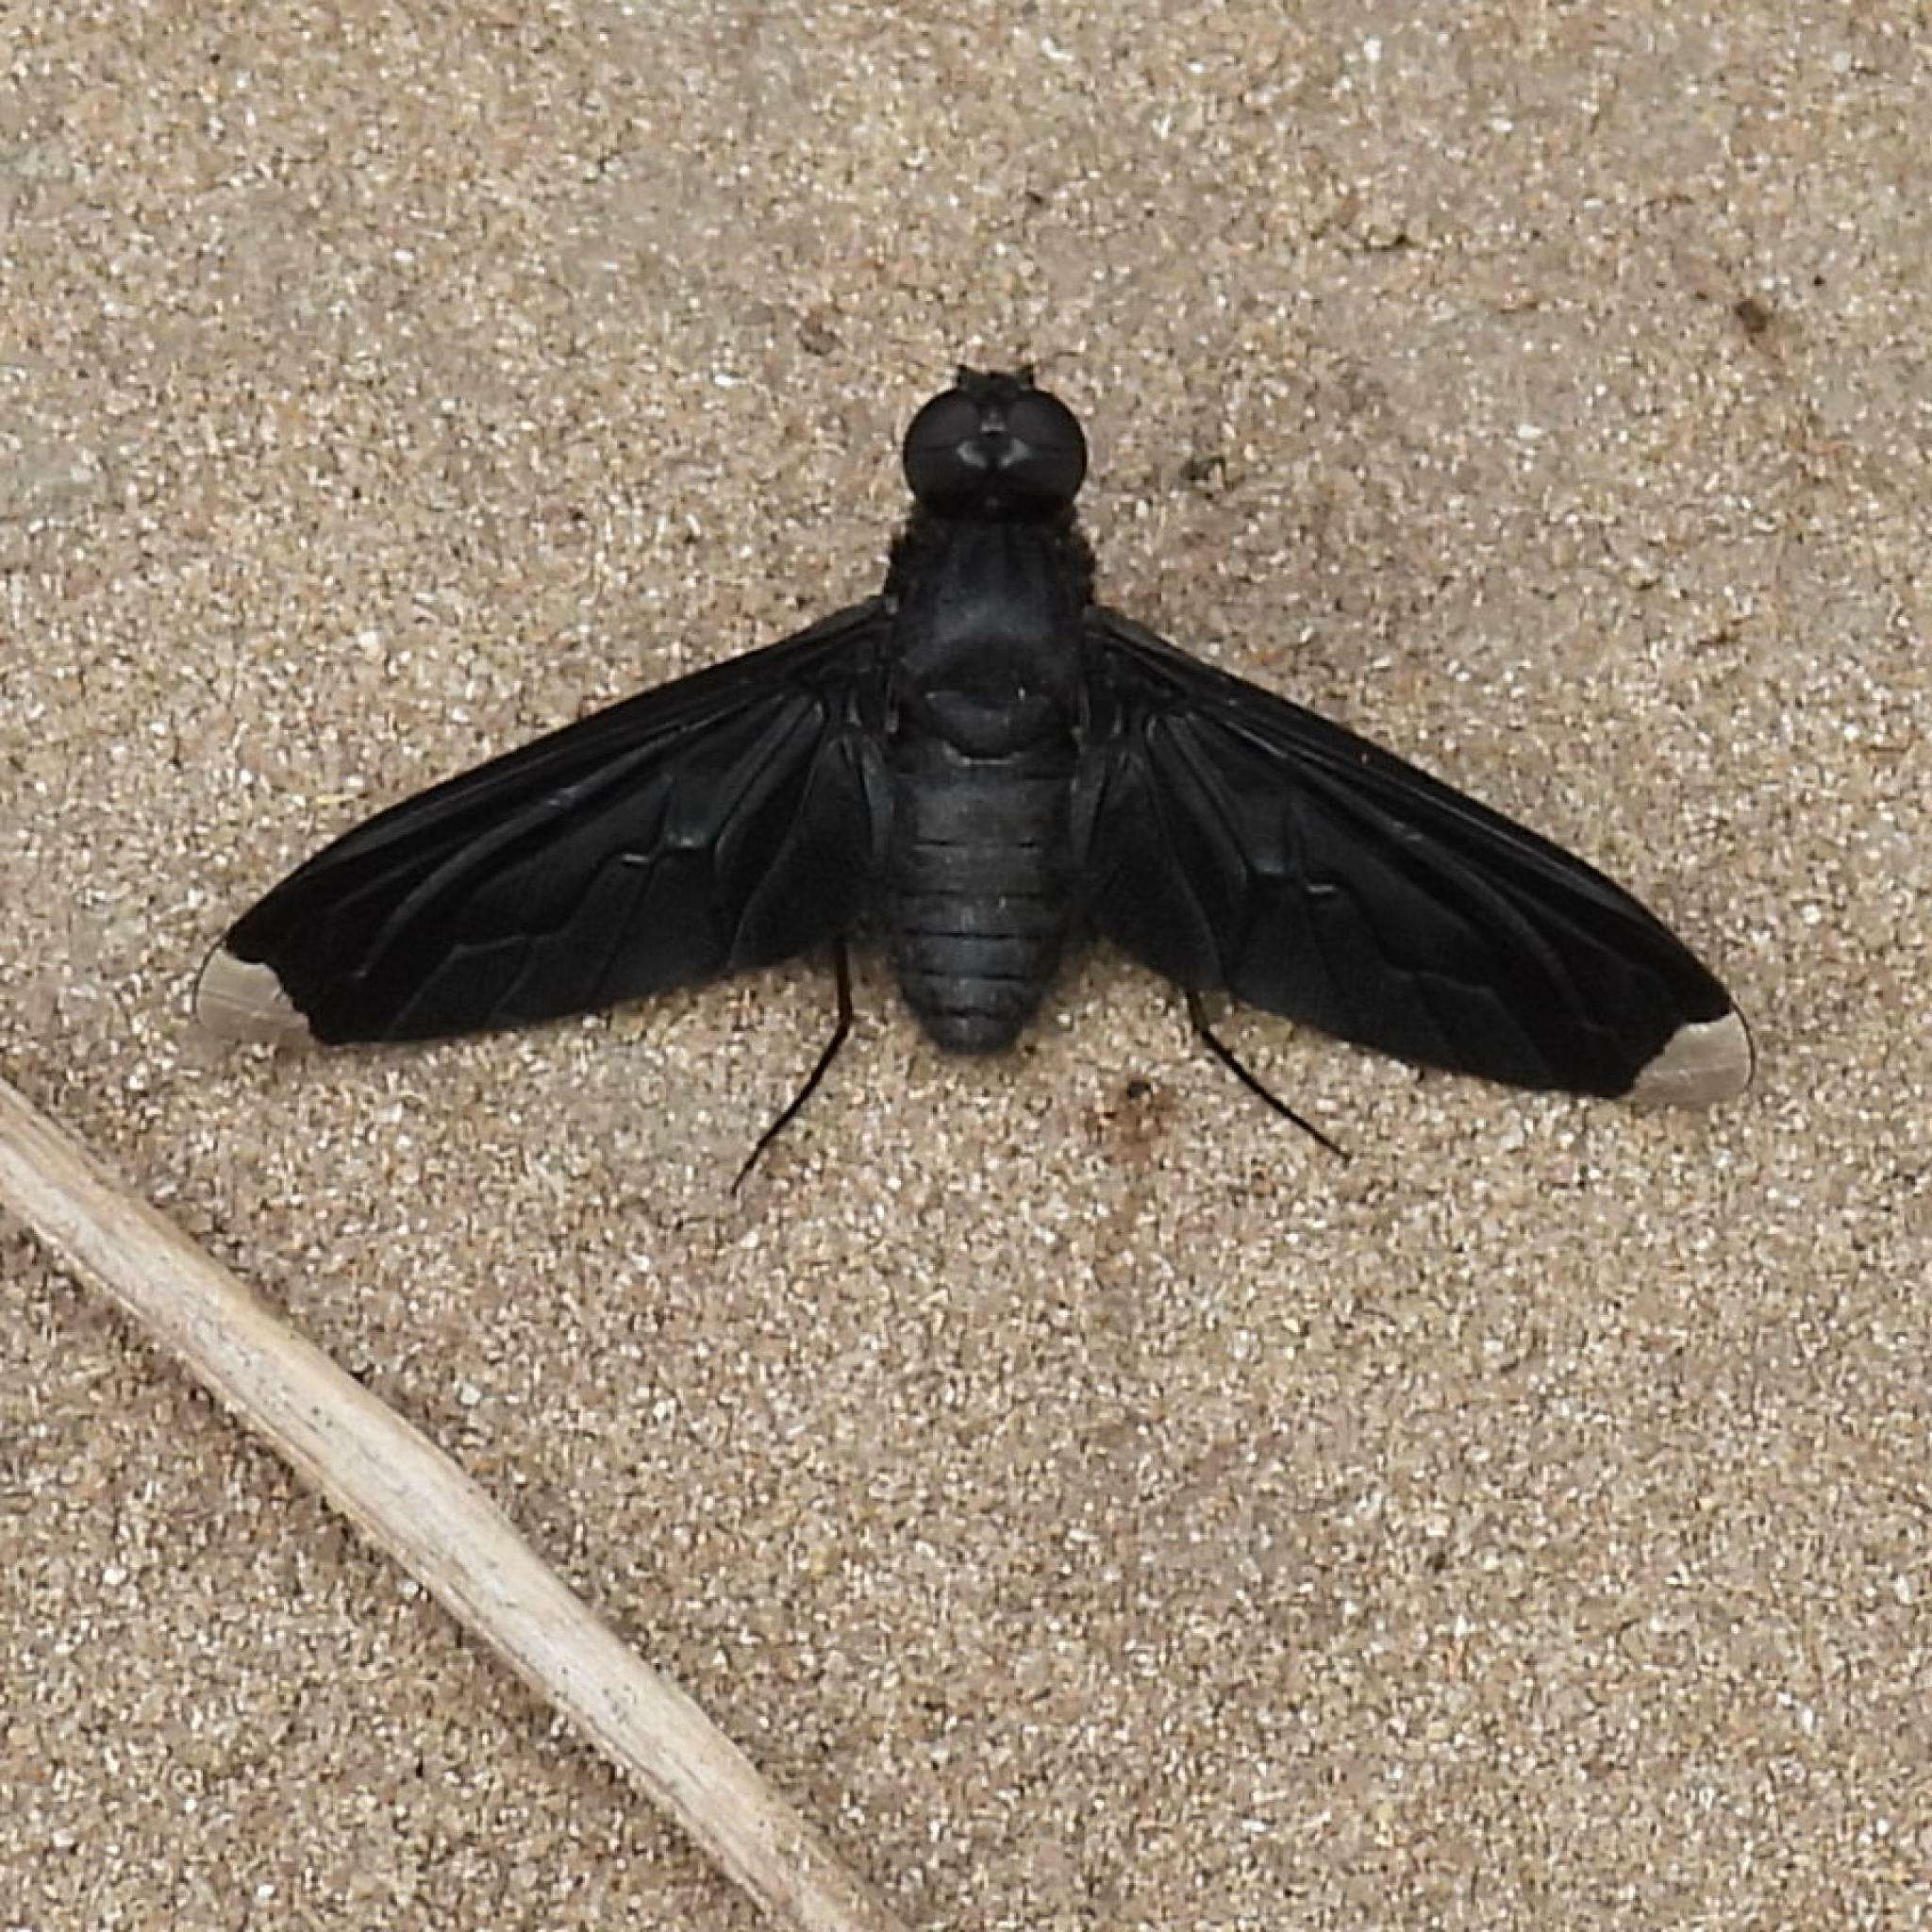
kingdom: Animalia
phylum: Arthropoda
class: Insecta
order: Diptera
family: Bombyliidae
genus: Exoprosopa
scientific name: Exoprosopa nemesis
